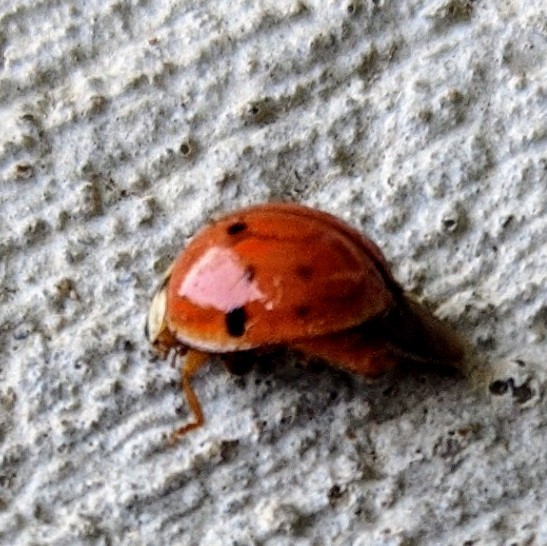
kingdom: Animalia
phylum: Arthropoda
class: Insecta
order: Coleoptera
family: Coccinellidae
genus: Harmonia
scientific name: Harmonia axyridis
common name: Harlequin ladybird
